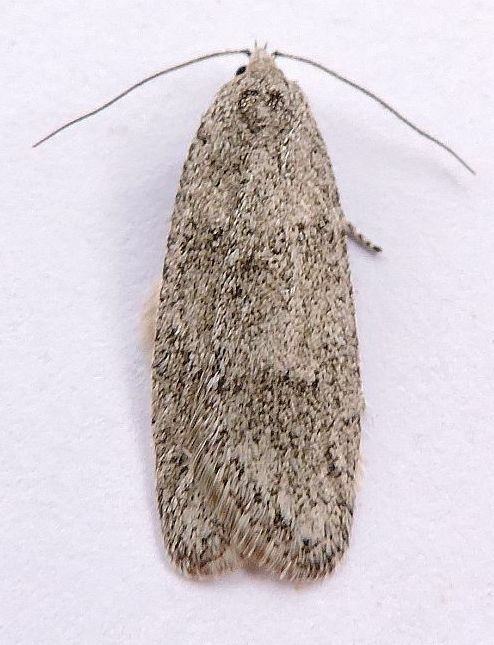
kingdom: Animalia
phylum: Arthropoda
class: Insecta
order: Lepidoptera
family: Depressariidae
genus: Semioscopis
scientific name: Semioscopis inornata
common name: Poplar micromoth
